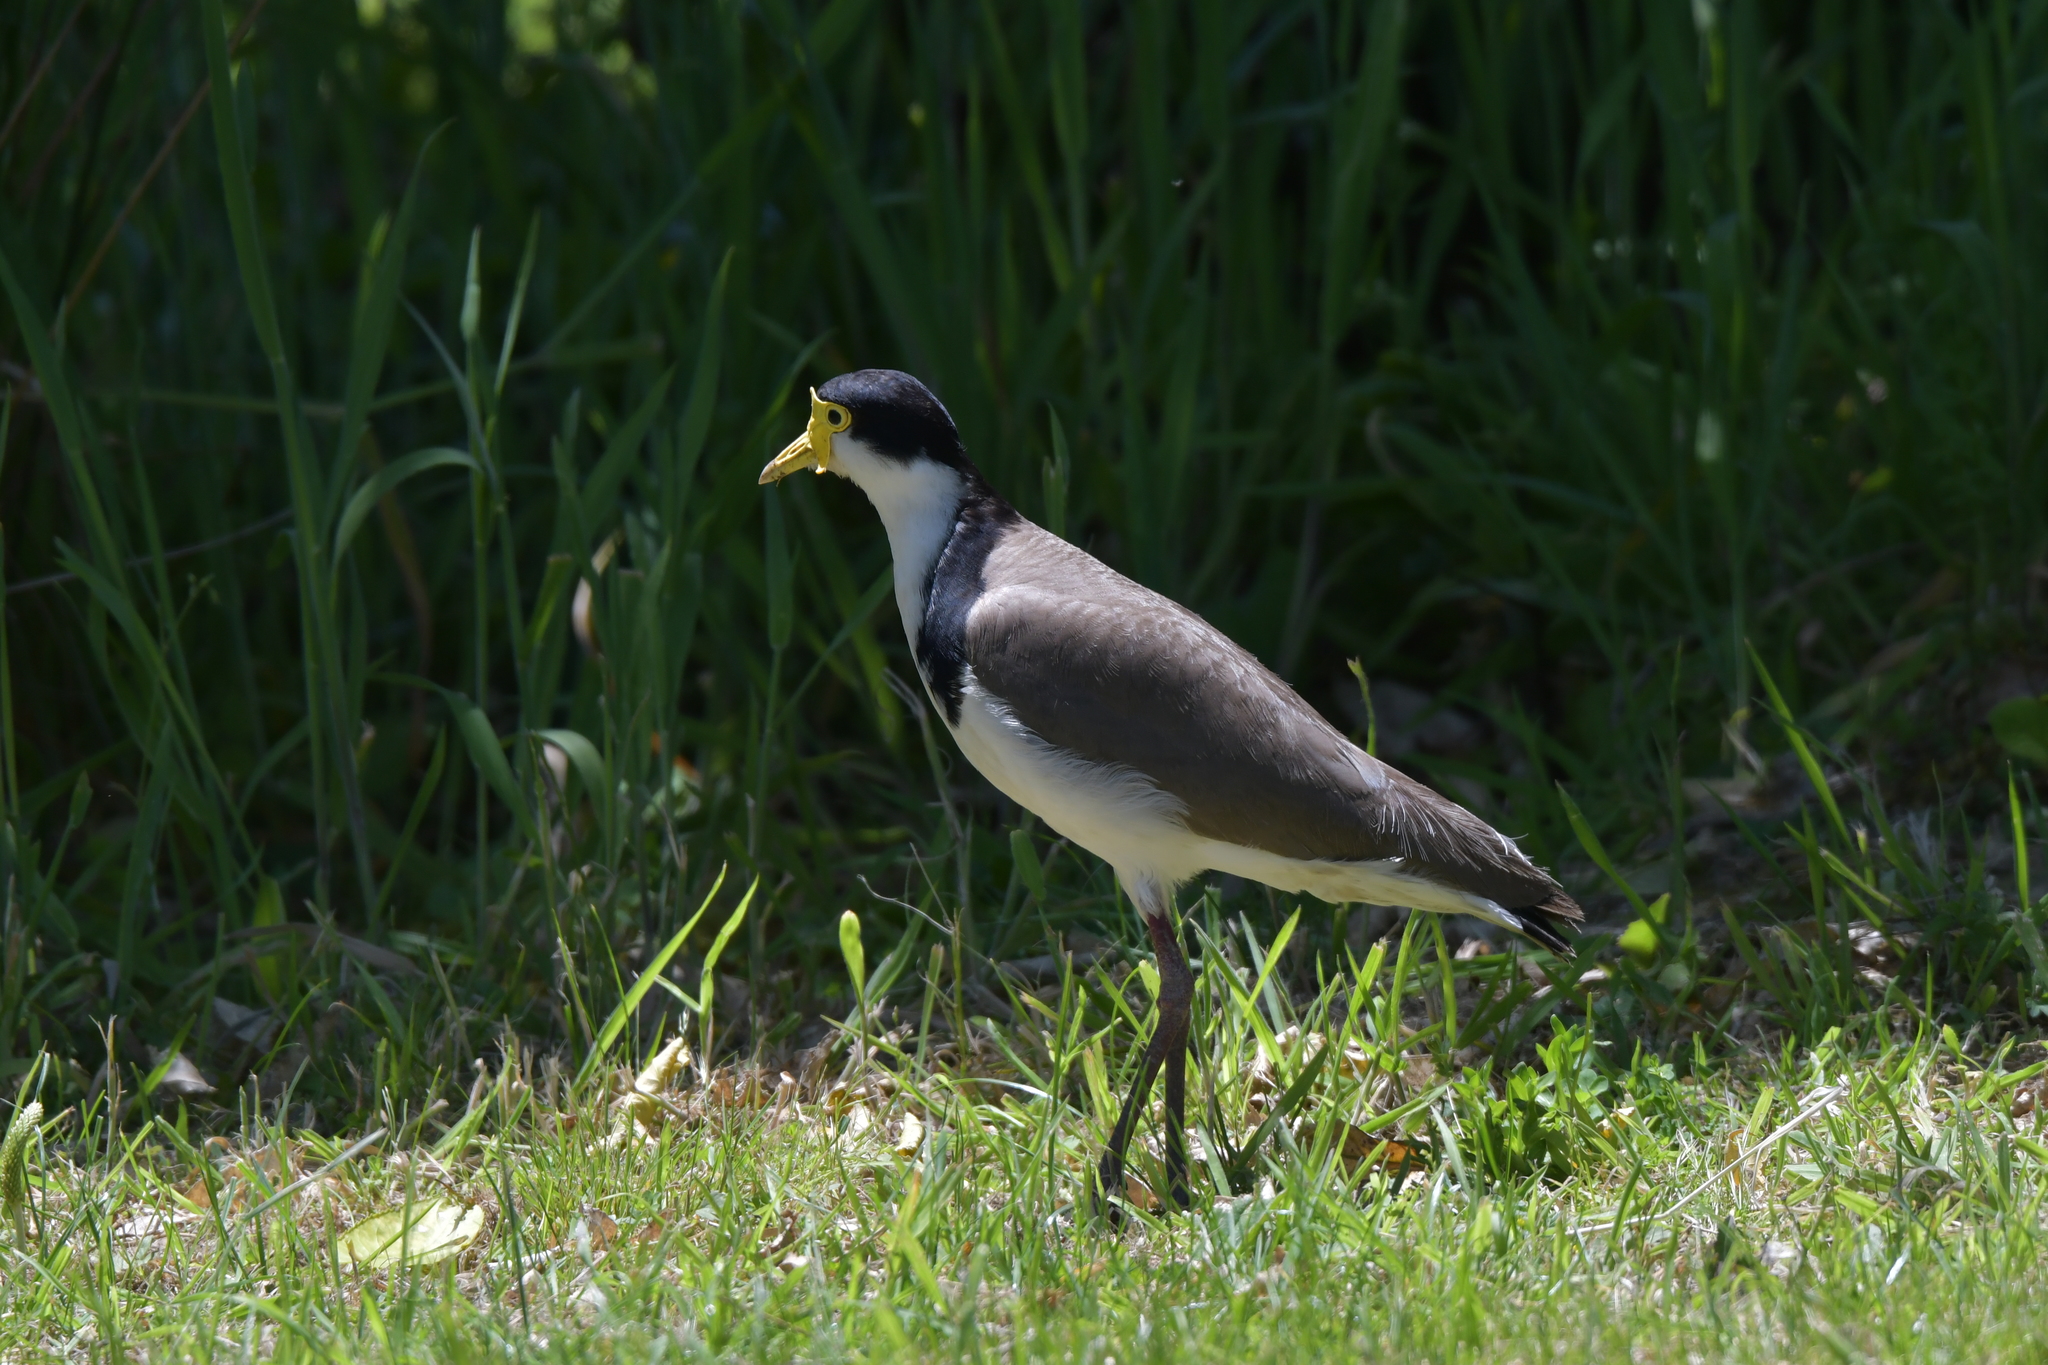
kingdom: Animalia
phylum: Chordata
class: Aves
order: Charadriiformes
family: Charadriidae
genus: Vanellus
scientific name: Vanellus miles
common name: Masked lapwing
